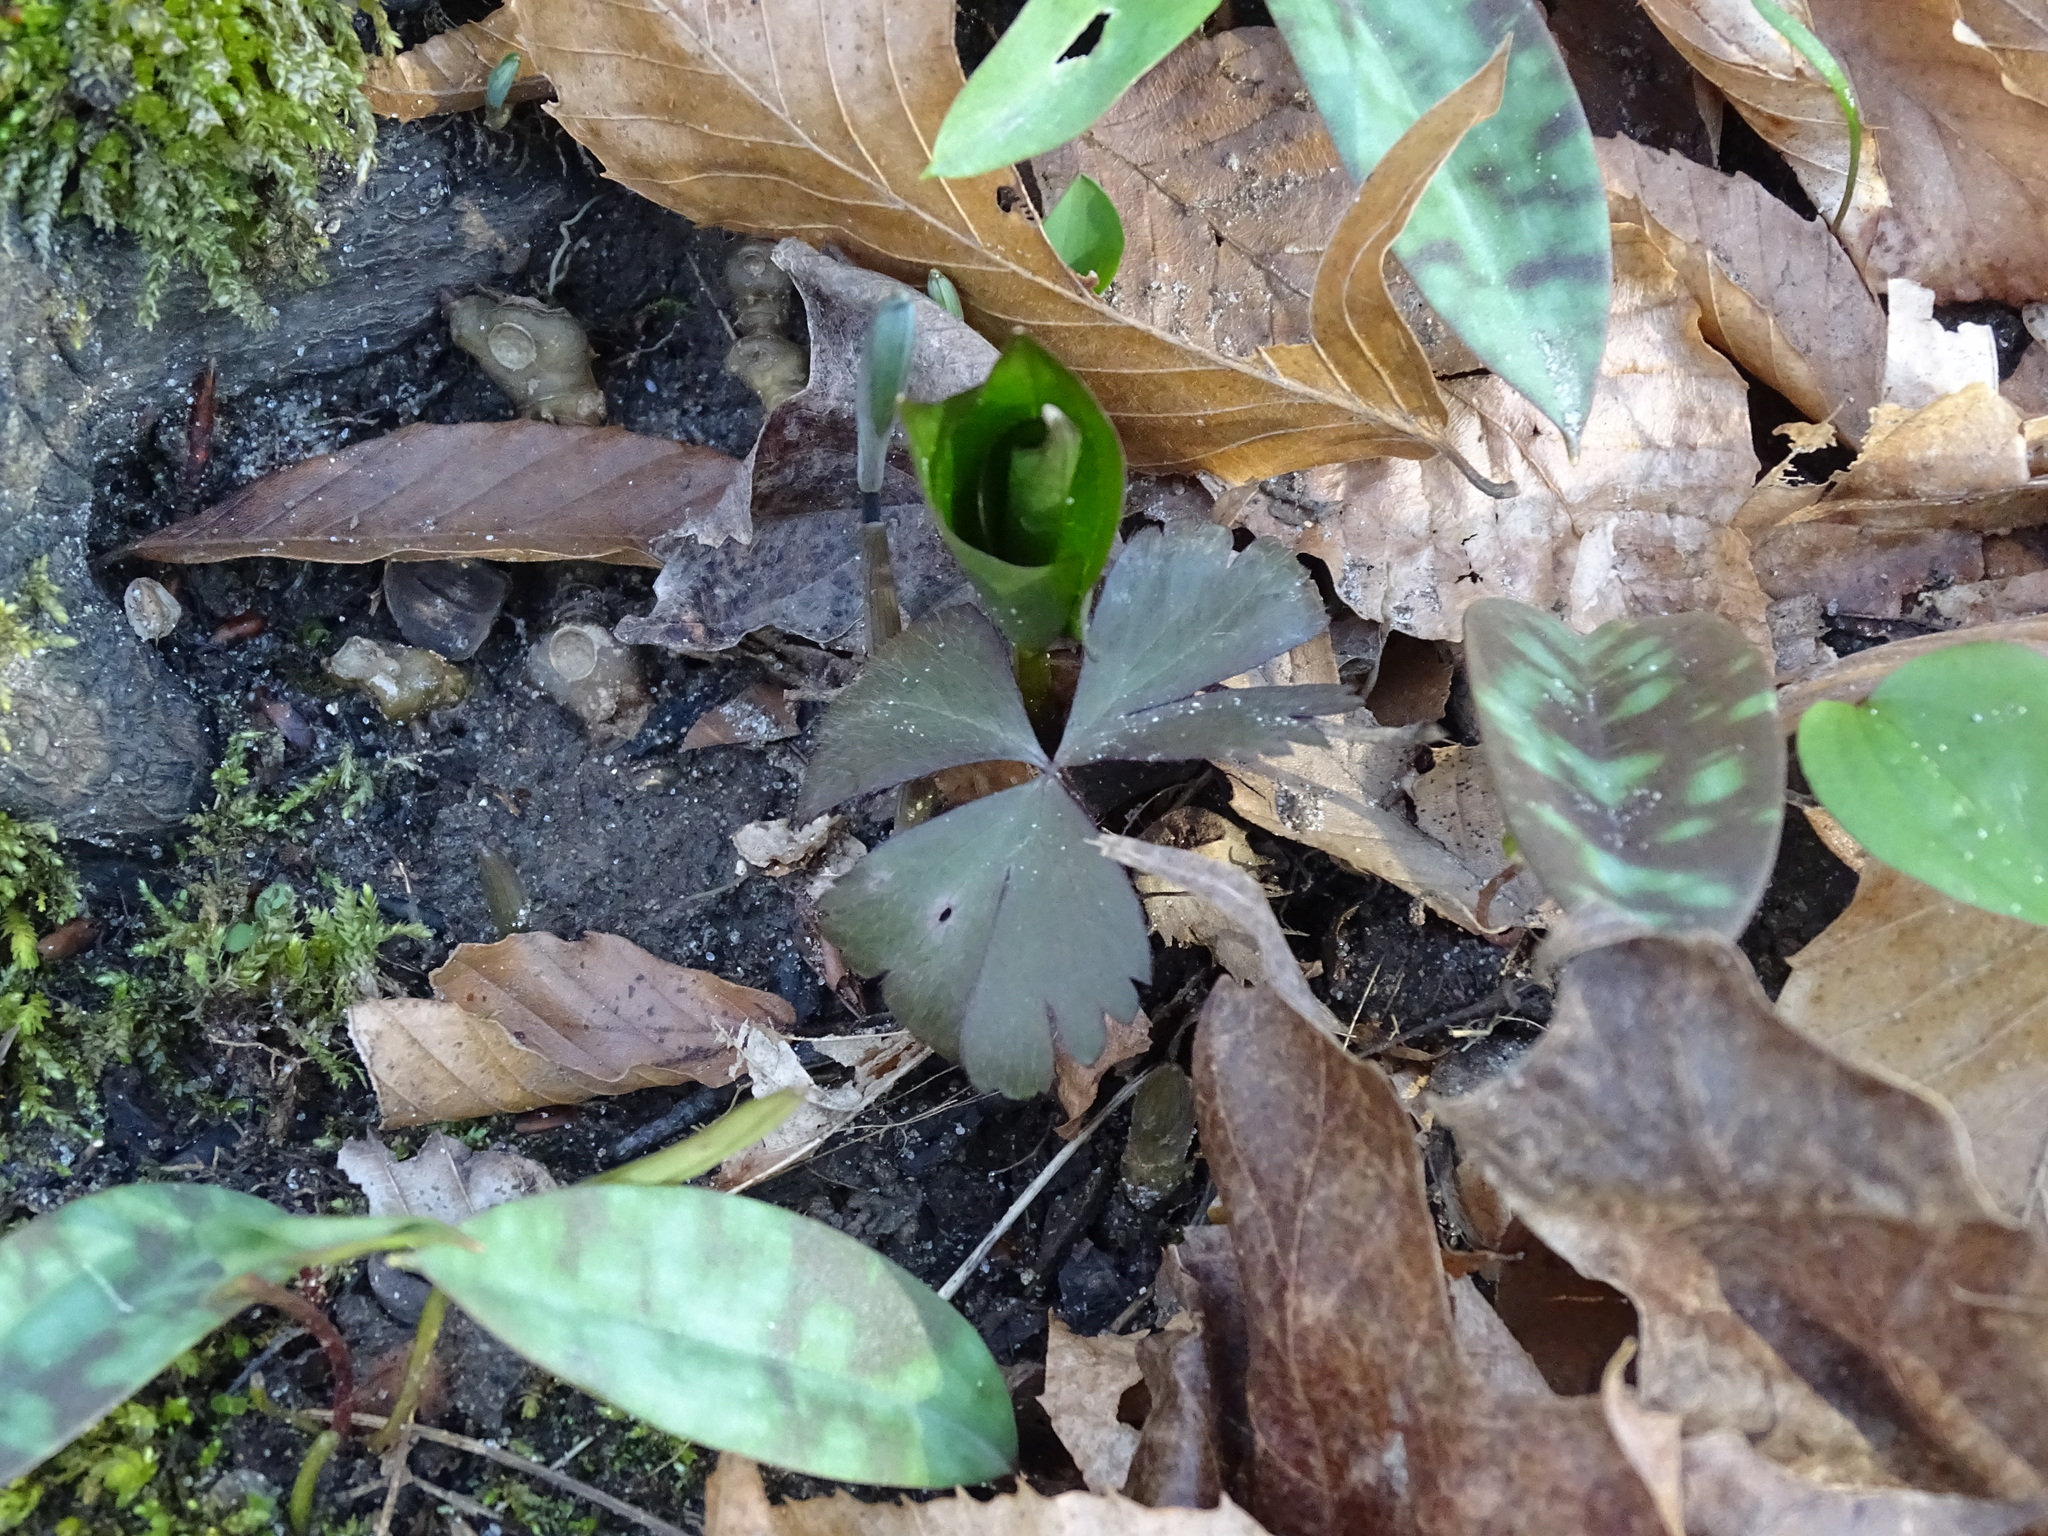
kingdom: Plantae
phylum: Tracheophyta
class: Magnoliopsida
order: Ranunculales
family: Ranunculaceae
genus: Anemone
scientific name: Anemone quinquefolia
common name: Wood anemone
